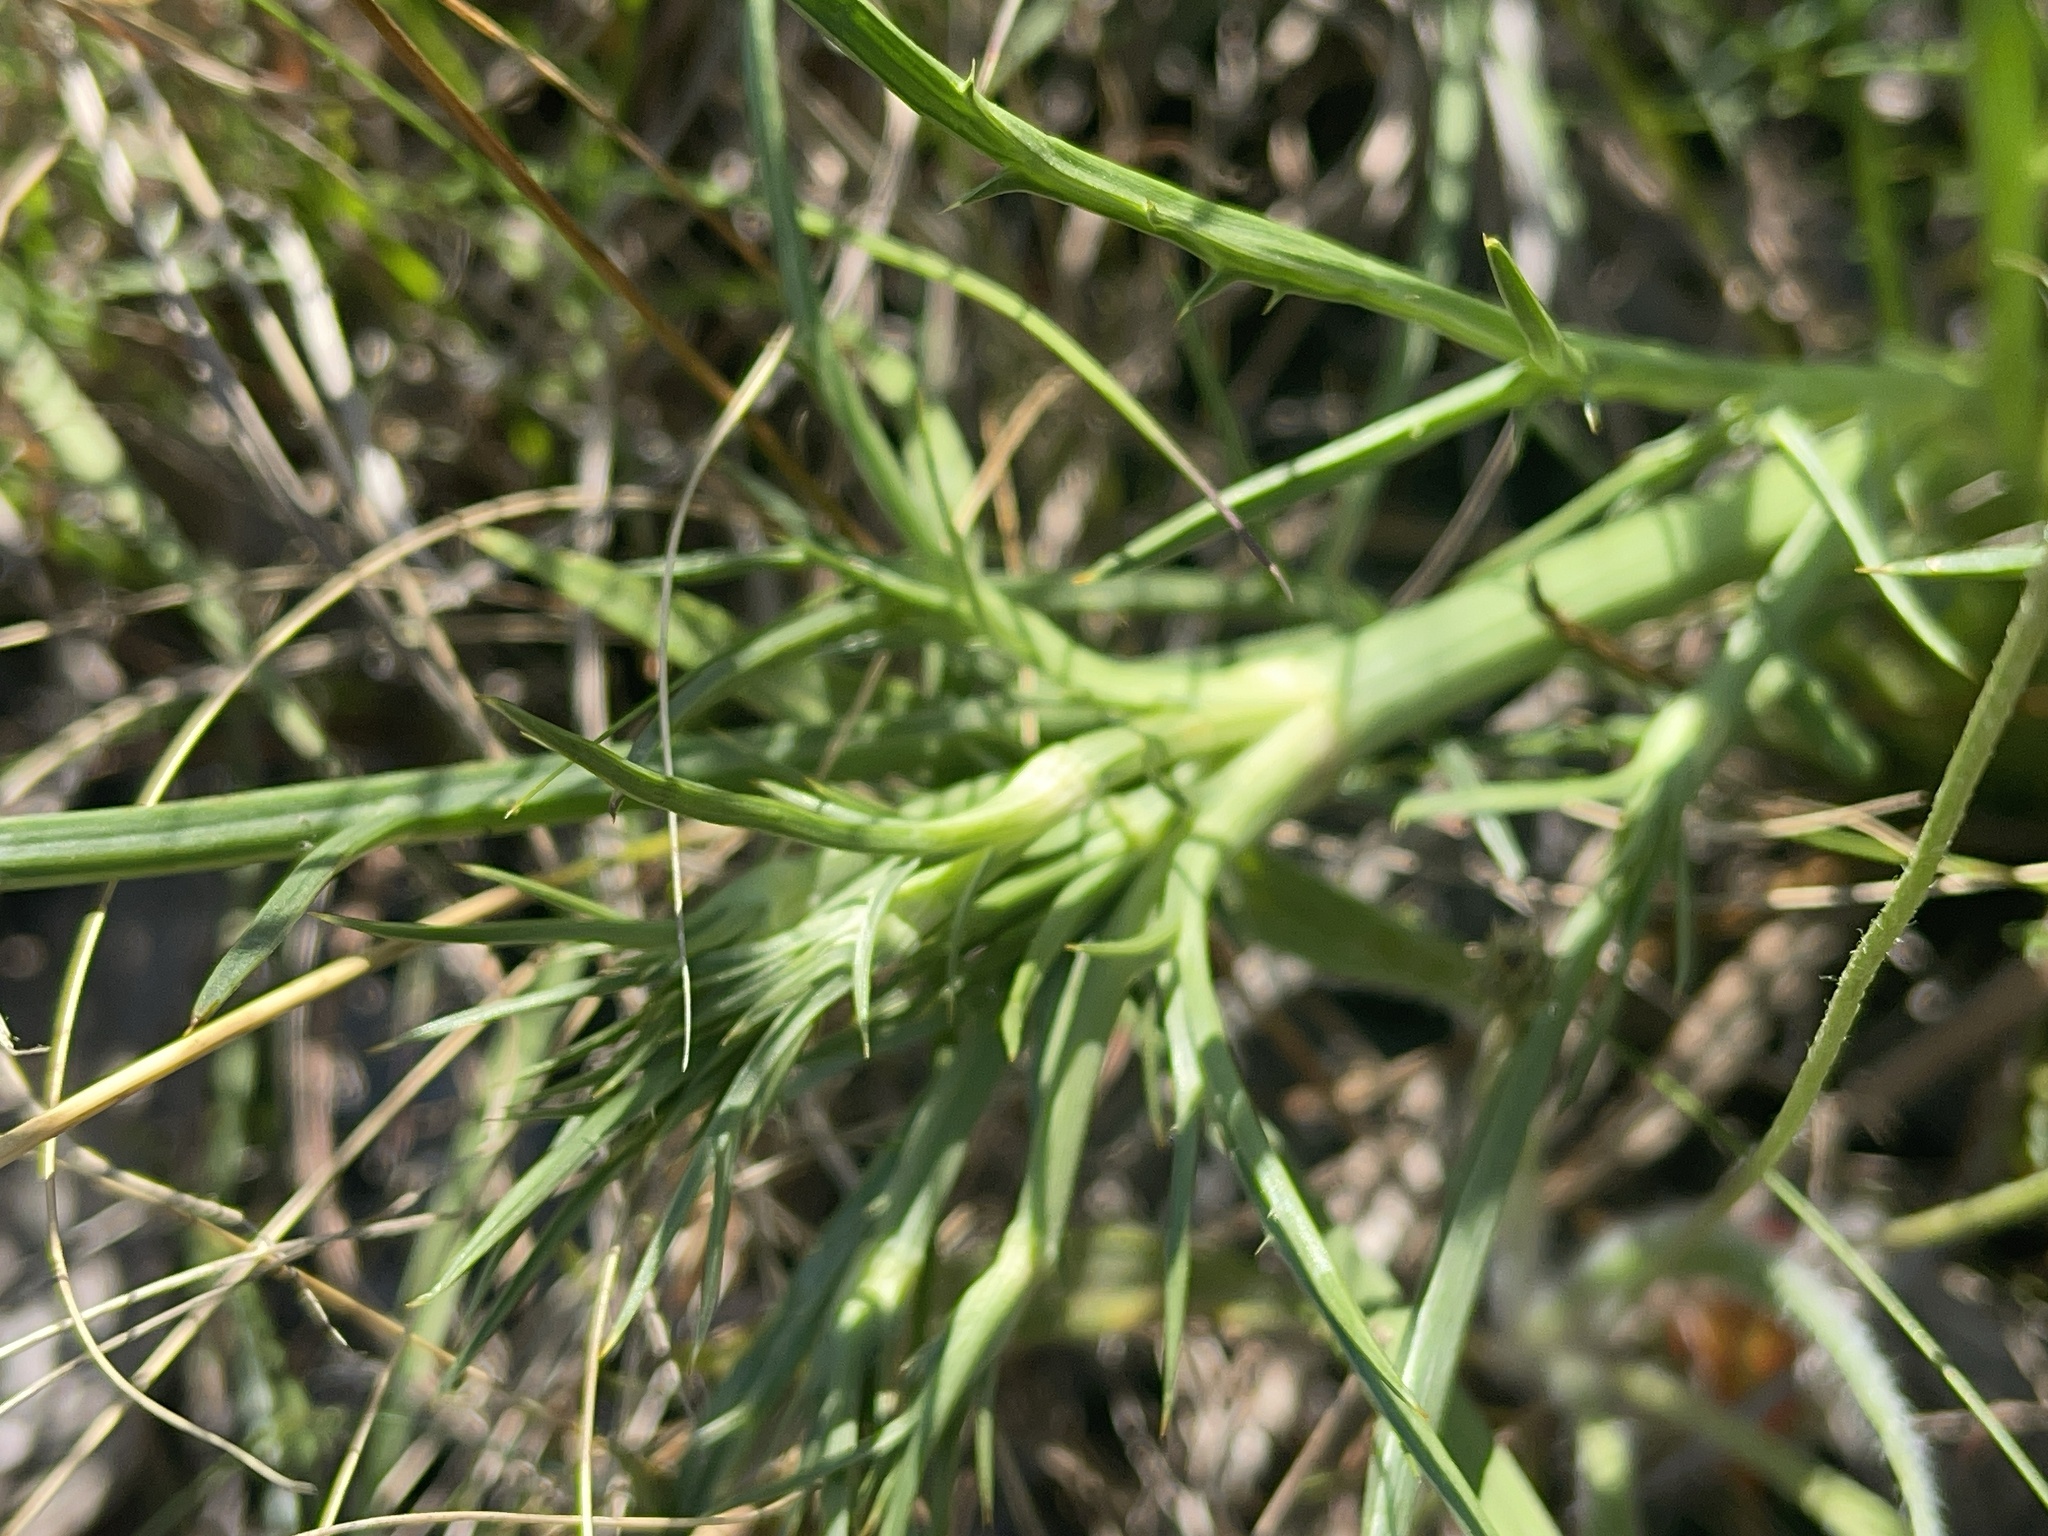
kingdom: Plantae
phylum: Tracheophyta
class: Magnoliopsida
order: Apiales
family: Apiaceae
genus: Eryngium
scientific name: Eryngium ovinum
